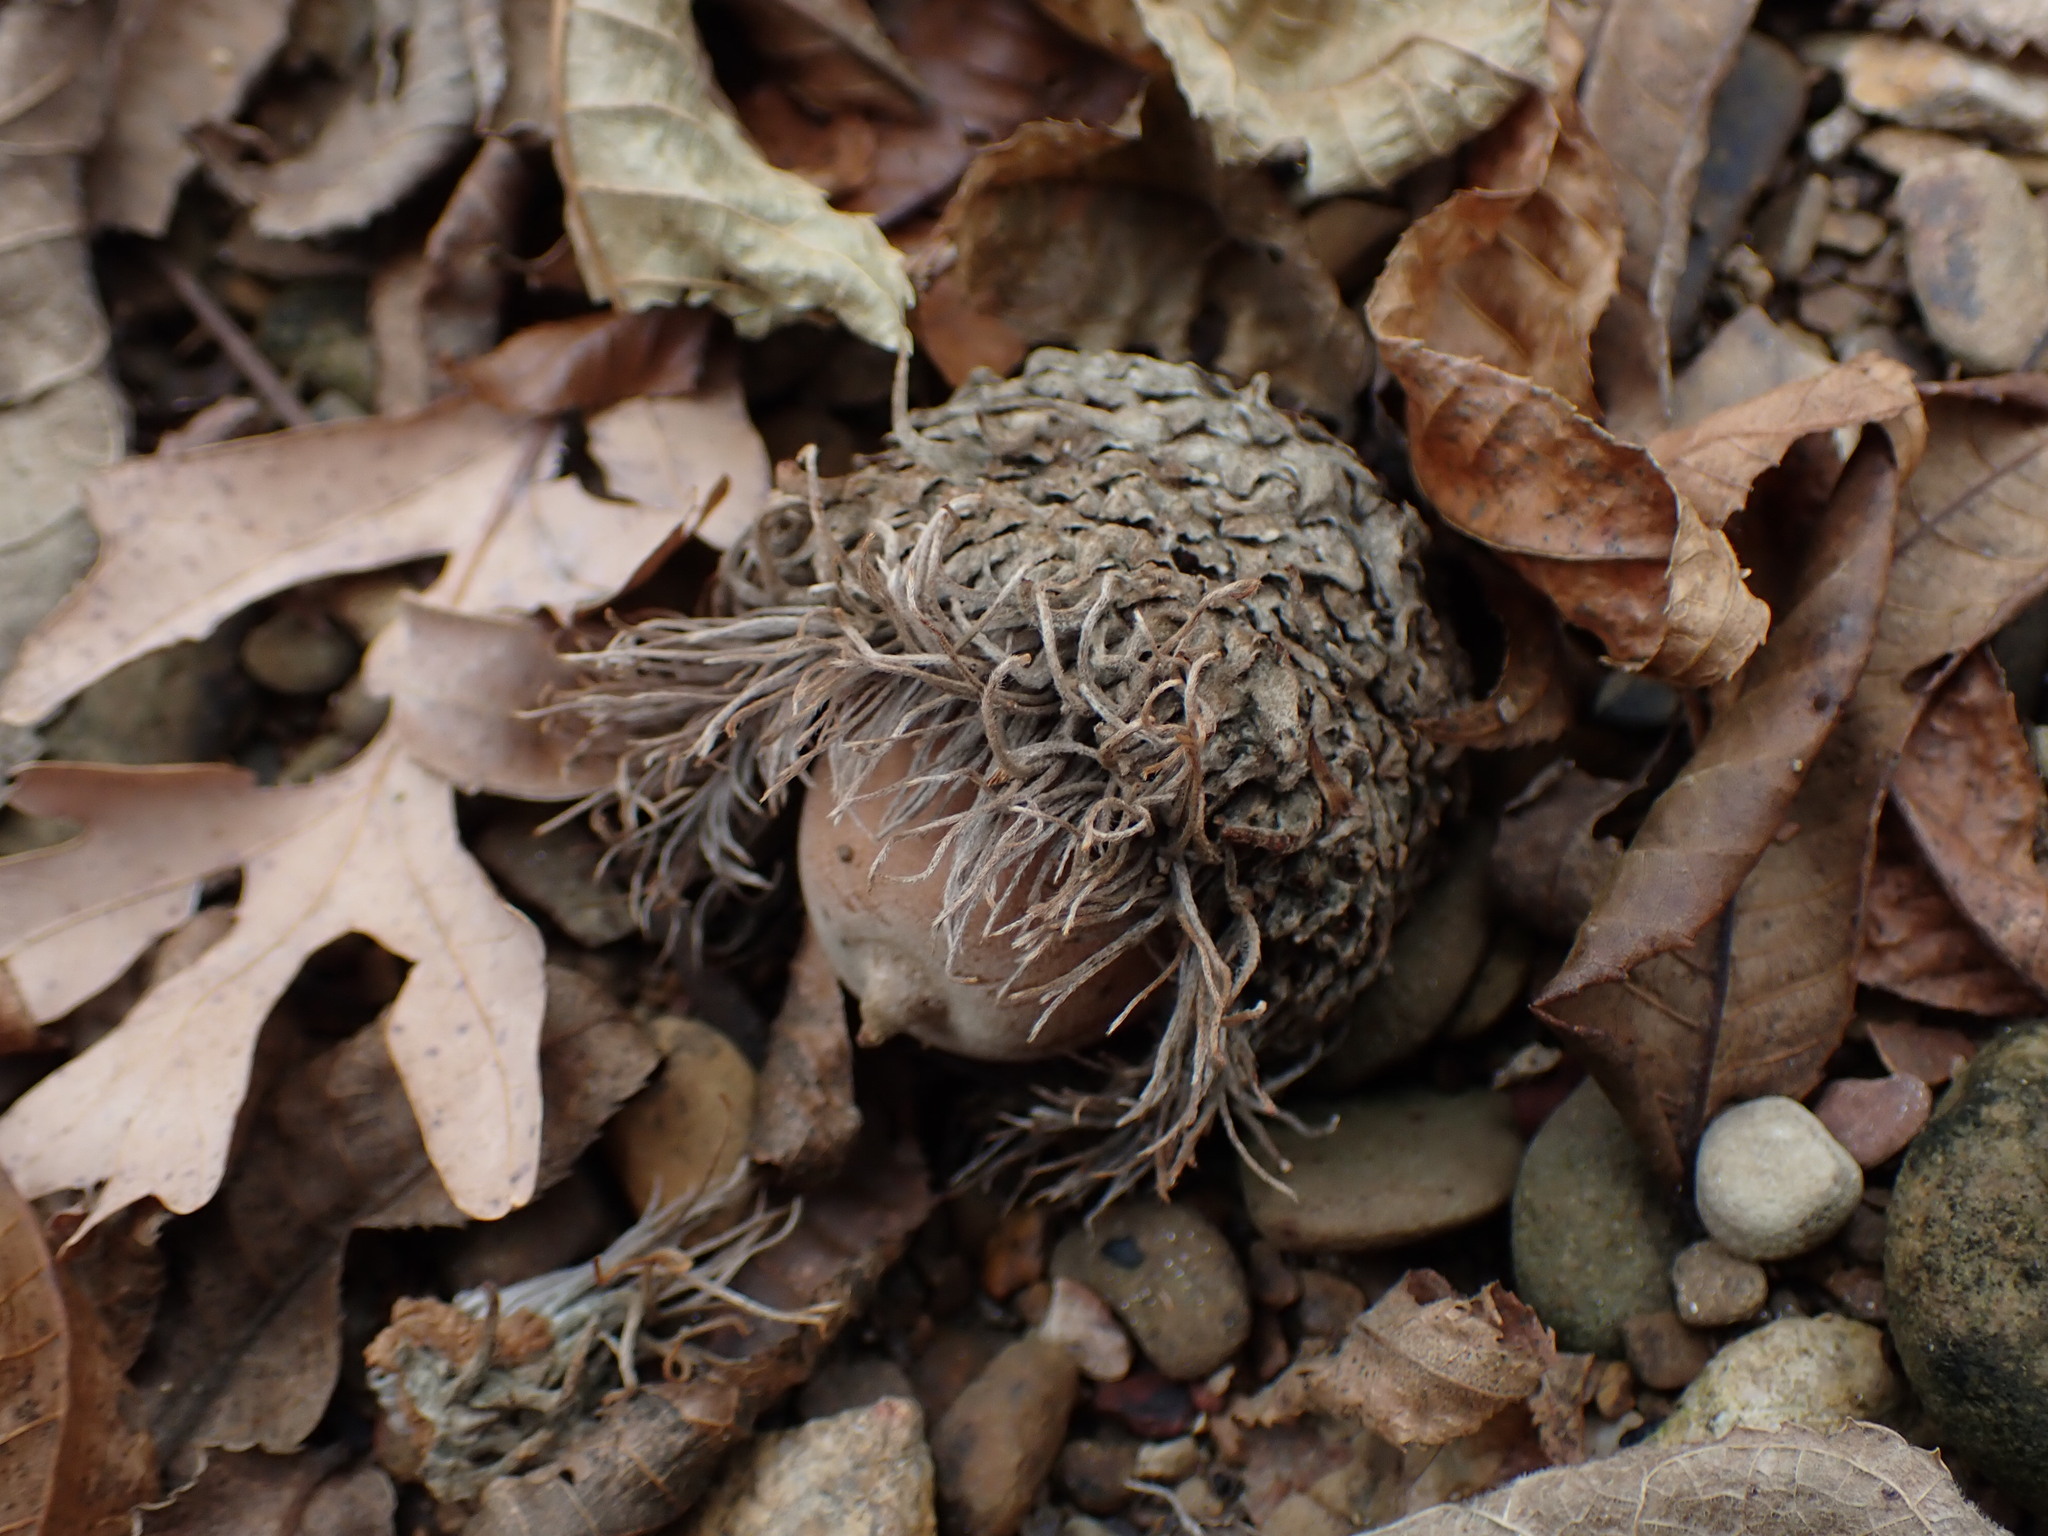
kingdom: Plantae
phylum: Tracheophyta
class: Magnoliopsida
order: Fagales
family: Fagaceae
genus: Quercus
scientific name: Quercus macrocarpa
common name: Bur oak
